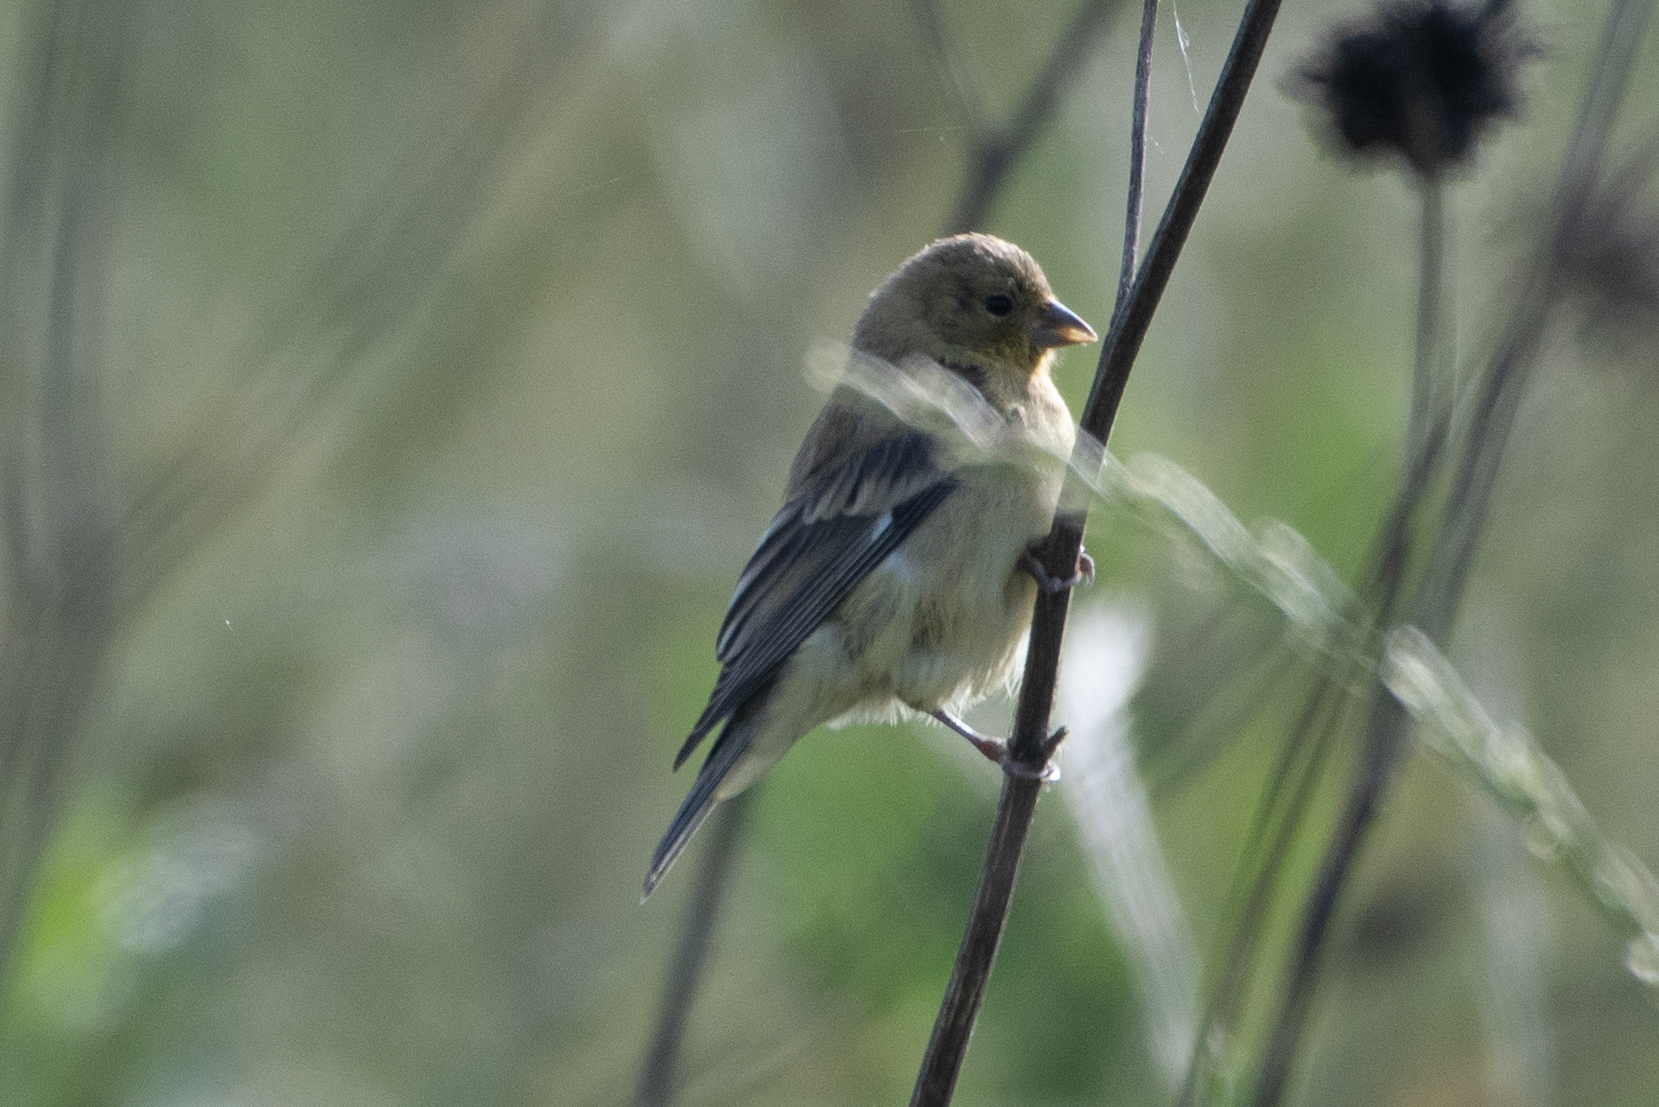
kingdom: Animalia
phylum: Chordata
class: Aves
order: Passeriformes
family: Fringillidae
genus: Spinus
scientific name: Spinus psaltria
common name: Lesser goldfinch
